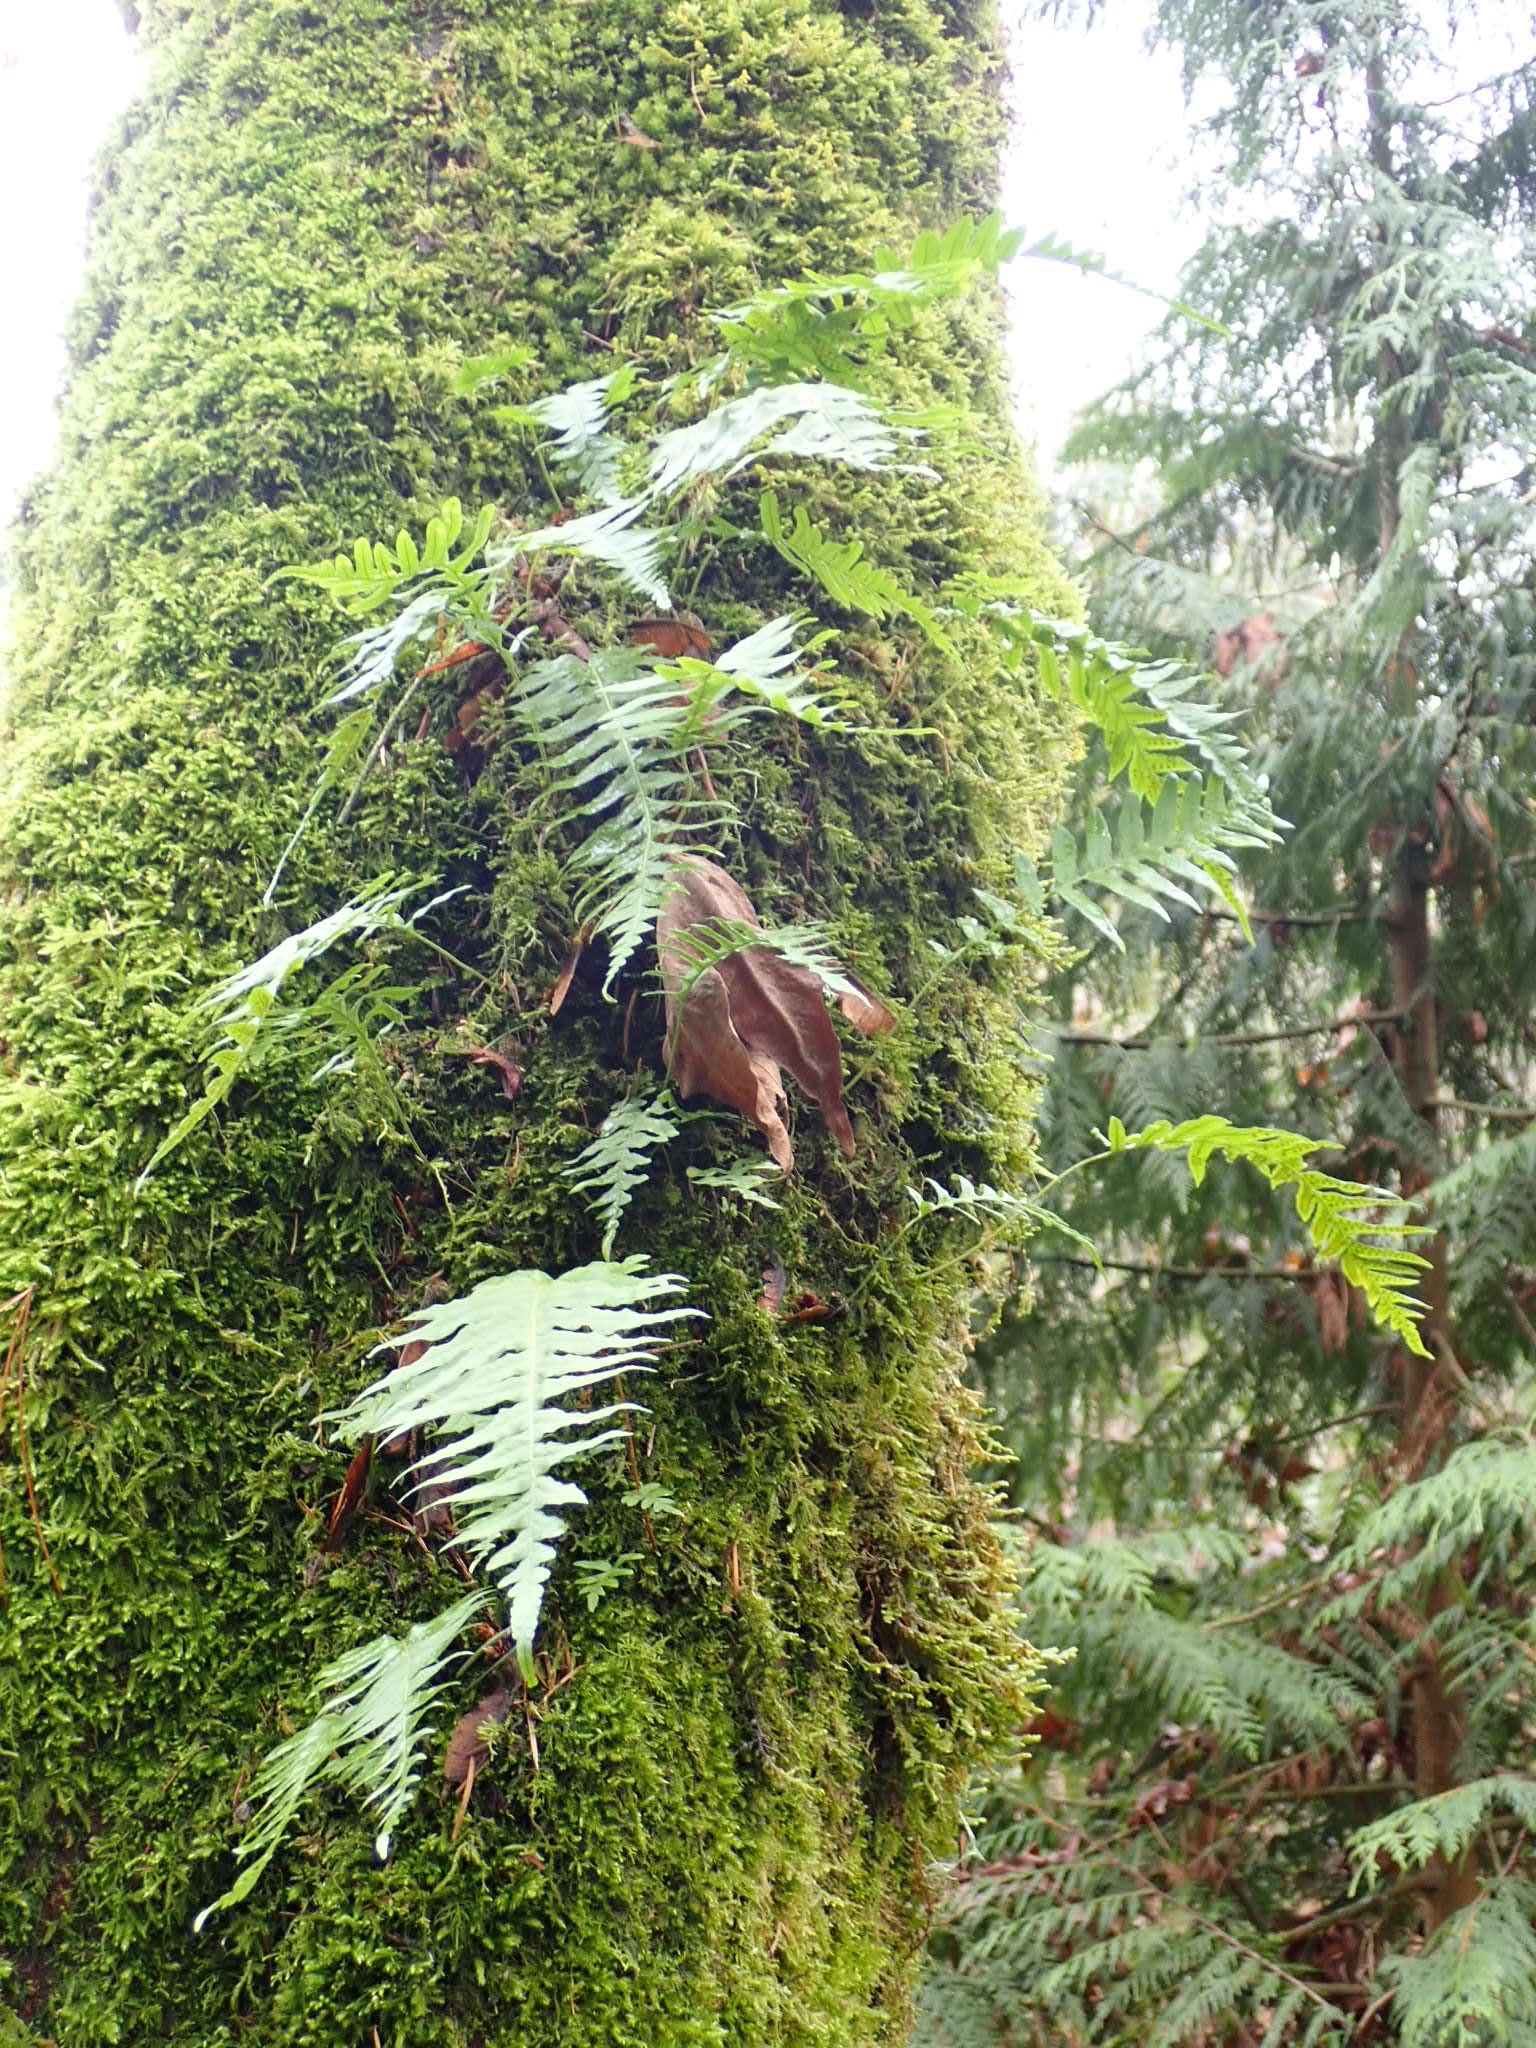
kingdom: Plantae
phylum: Tracheophyta
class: Polypodiopsida
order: Polypodiales
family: Polypodiaceae
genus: Polypodium
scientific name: Polypodium glycyrrhiza
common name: Licorice fern
